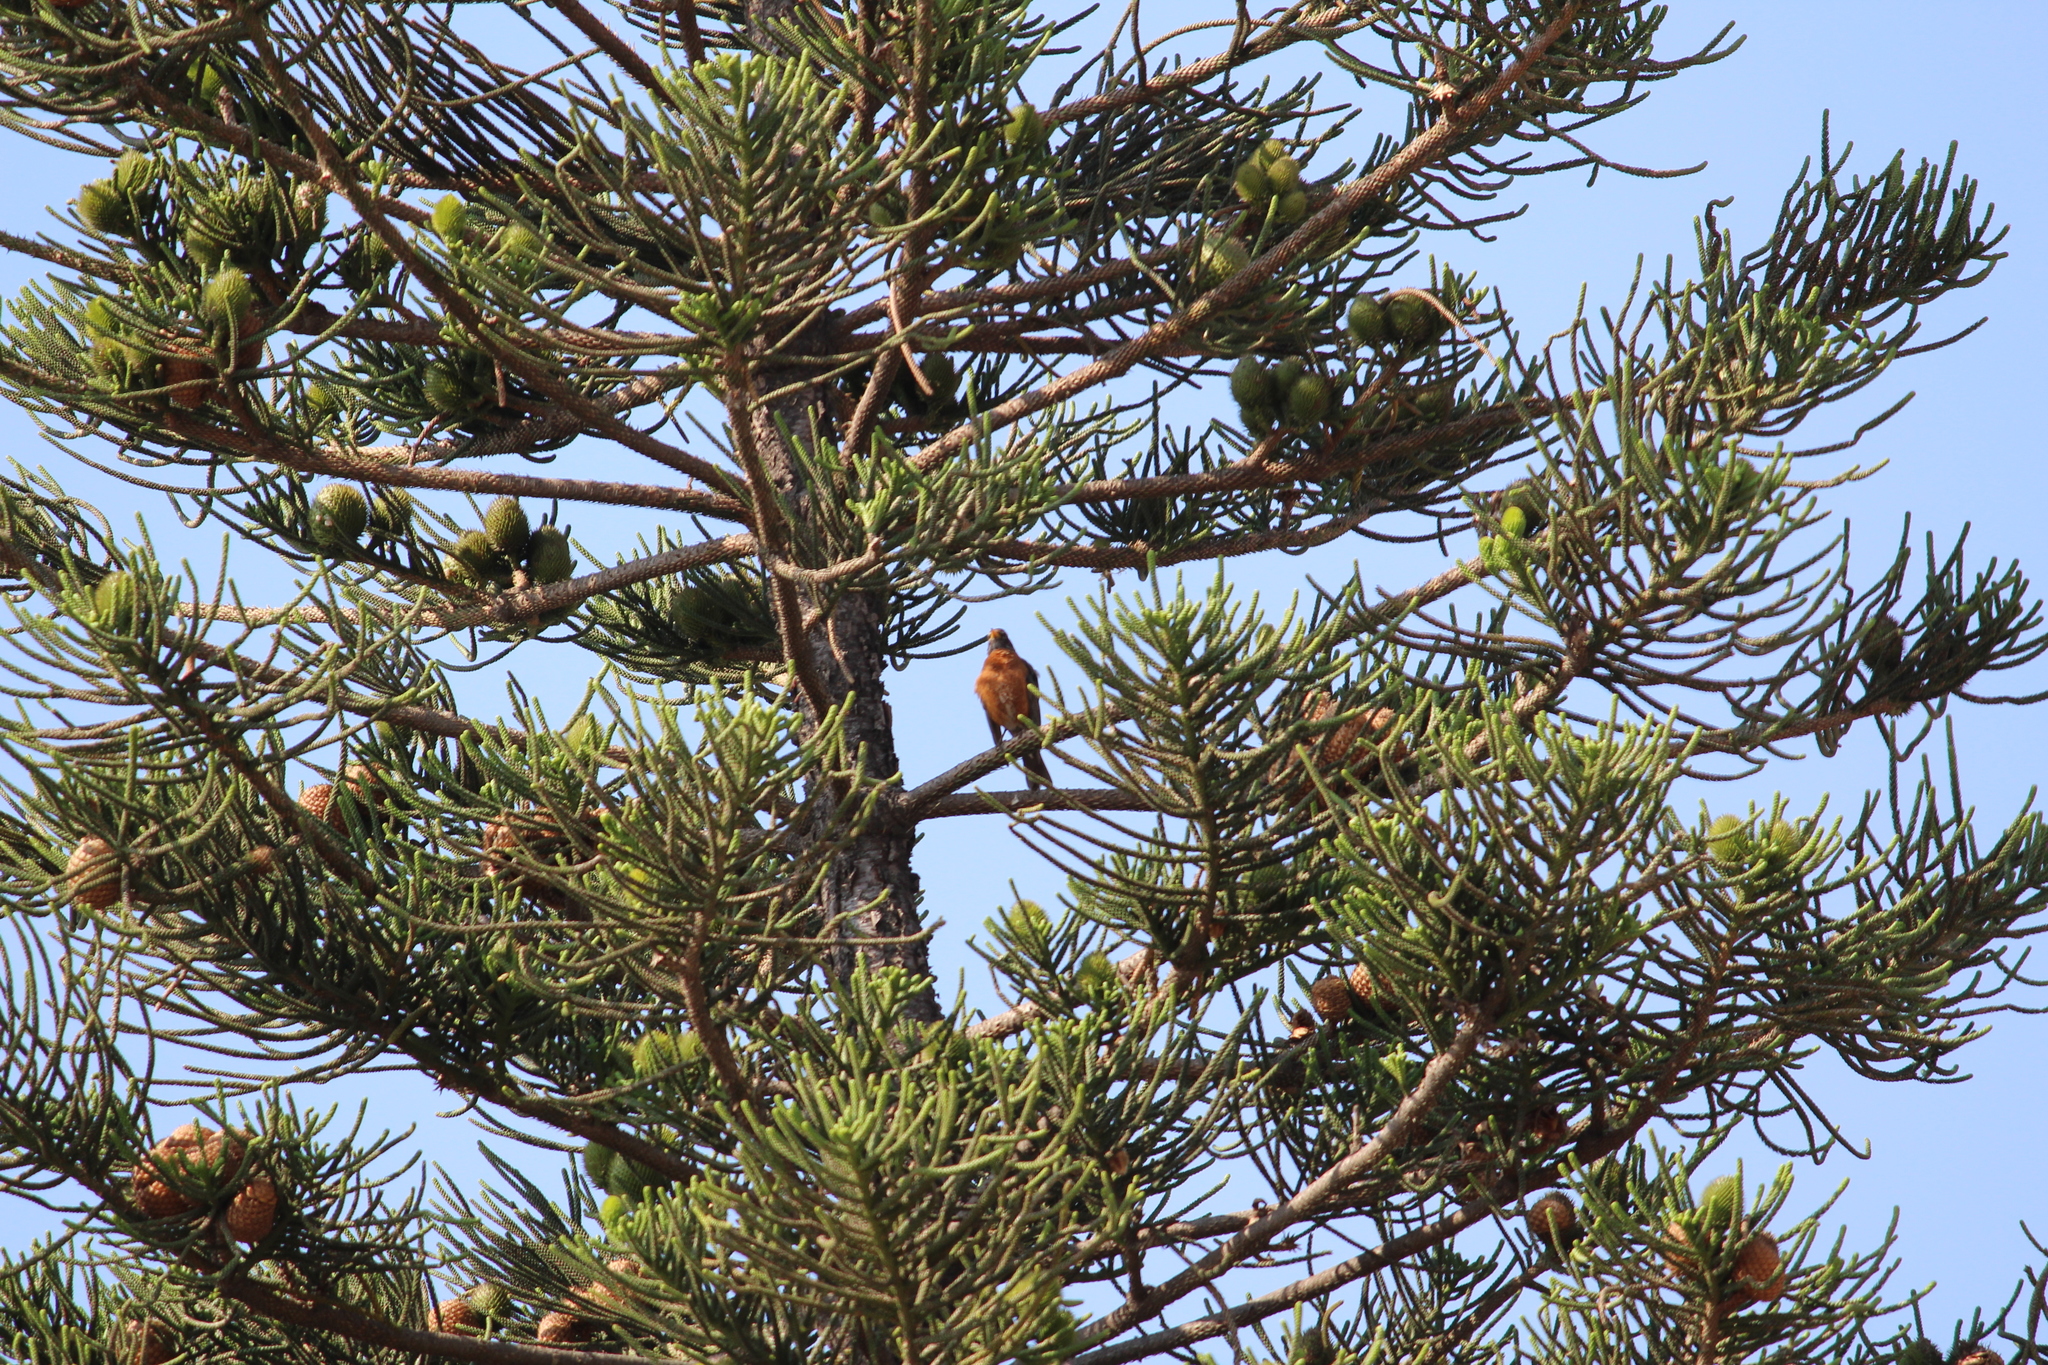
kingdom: Animalia
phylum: Chordata
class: Aves
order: Passeriformes
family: Turdidae
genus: Turdus
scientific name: Turdus migratorius
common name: American robin
